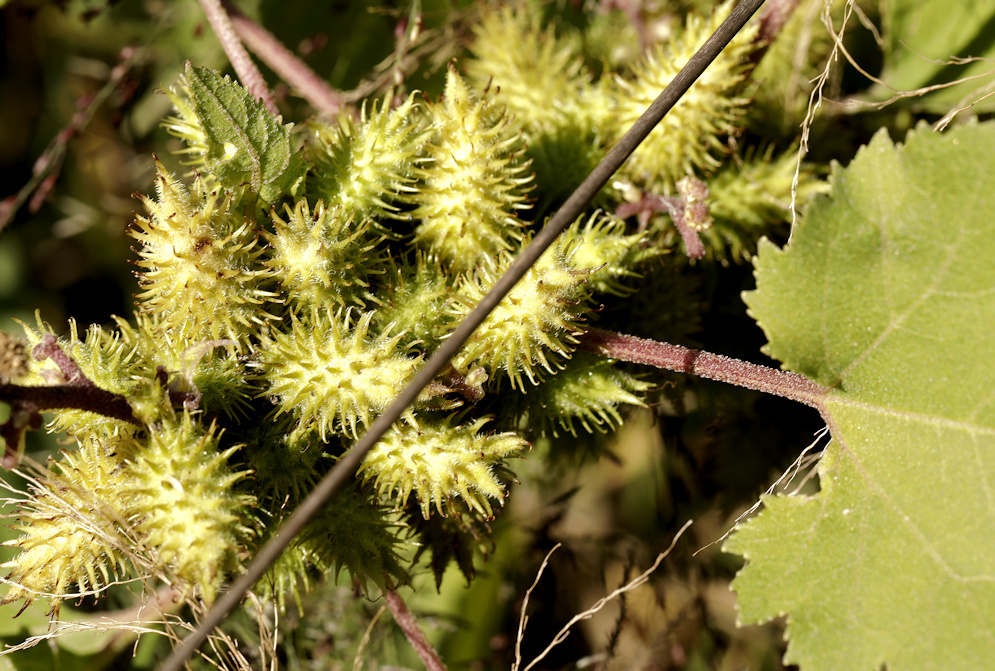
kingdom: Plantae
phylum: Tracheophyta
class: Magnoliopsida
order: Asterales
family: Asteraceae
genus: Xanthium
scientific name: Xanthium strumarium
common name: Rough cocklebur
